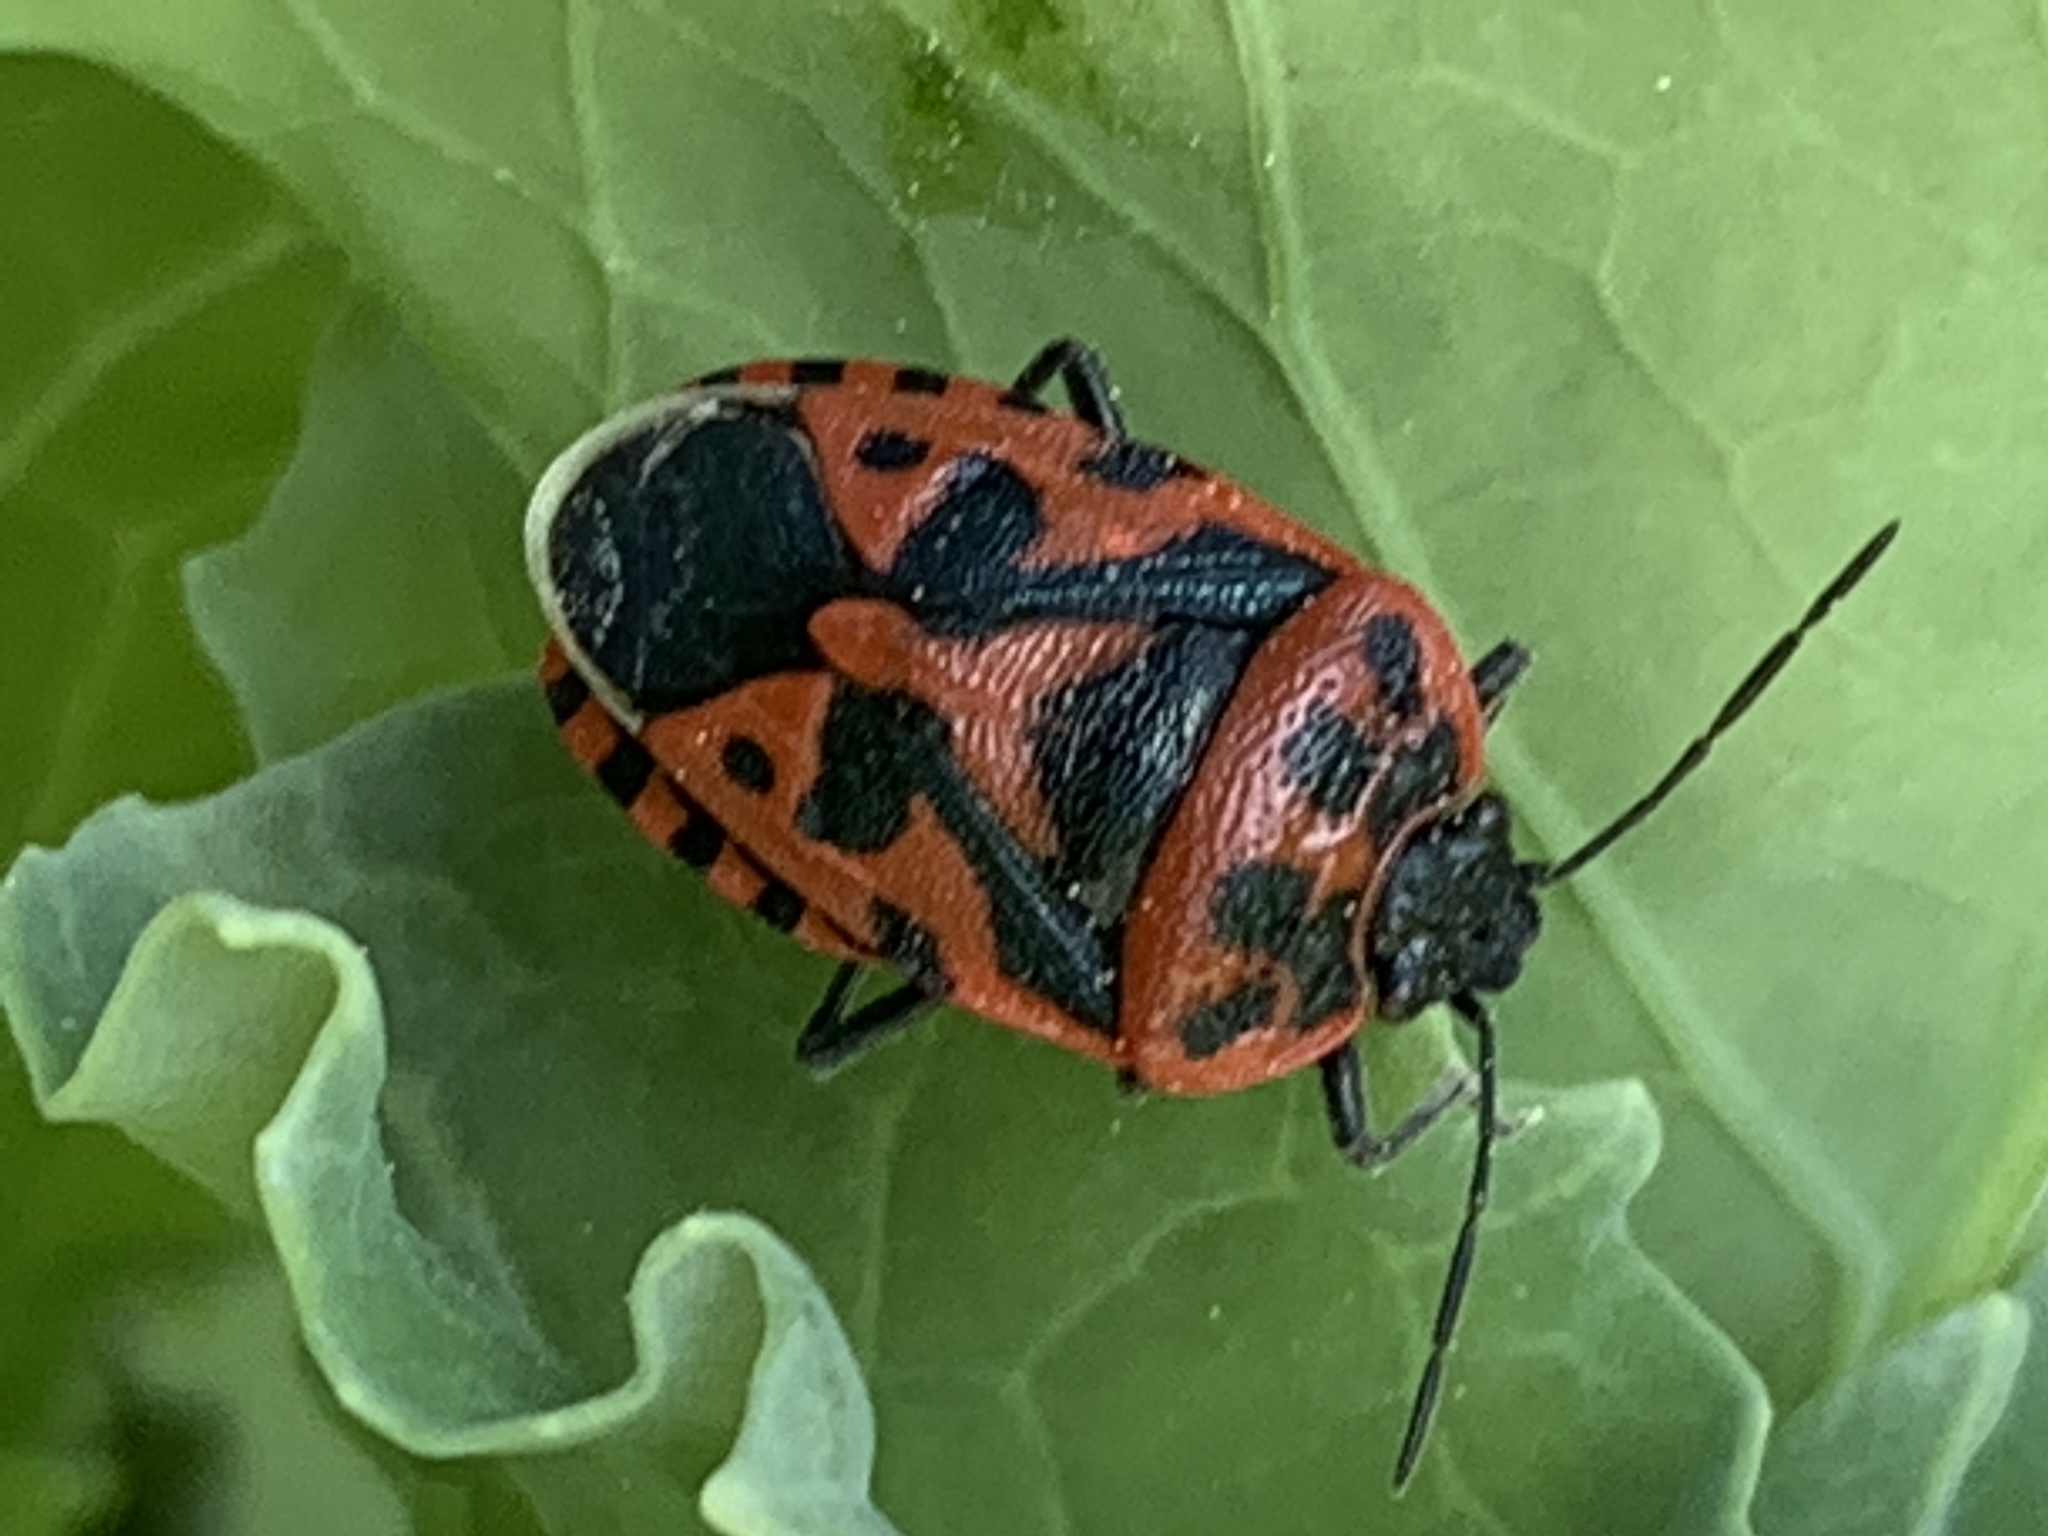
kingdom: Animalia
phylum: Arthropoda
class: Insecta
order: Hemiptera
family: Pentatomidae
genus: Eurydema
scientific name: Eurydema ventralis
